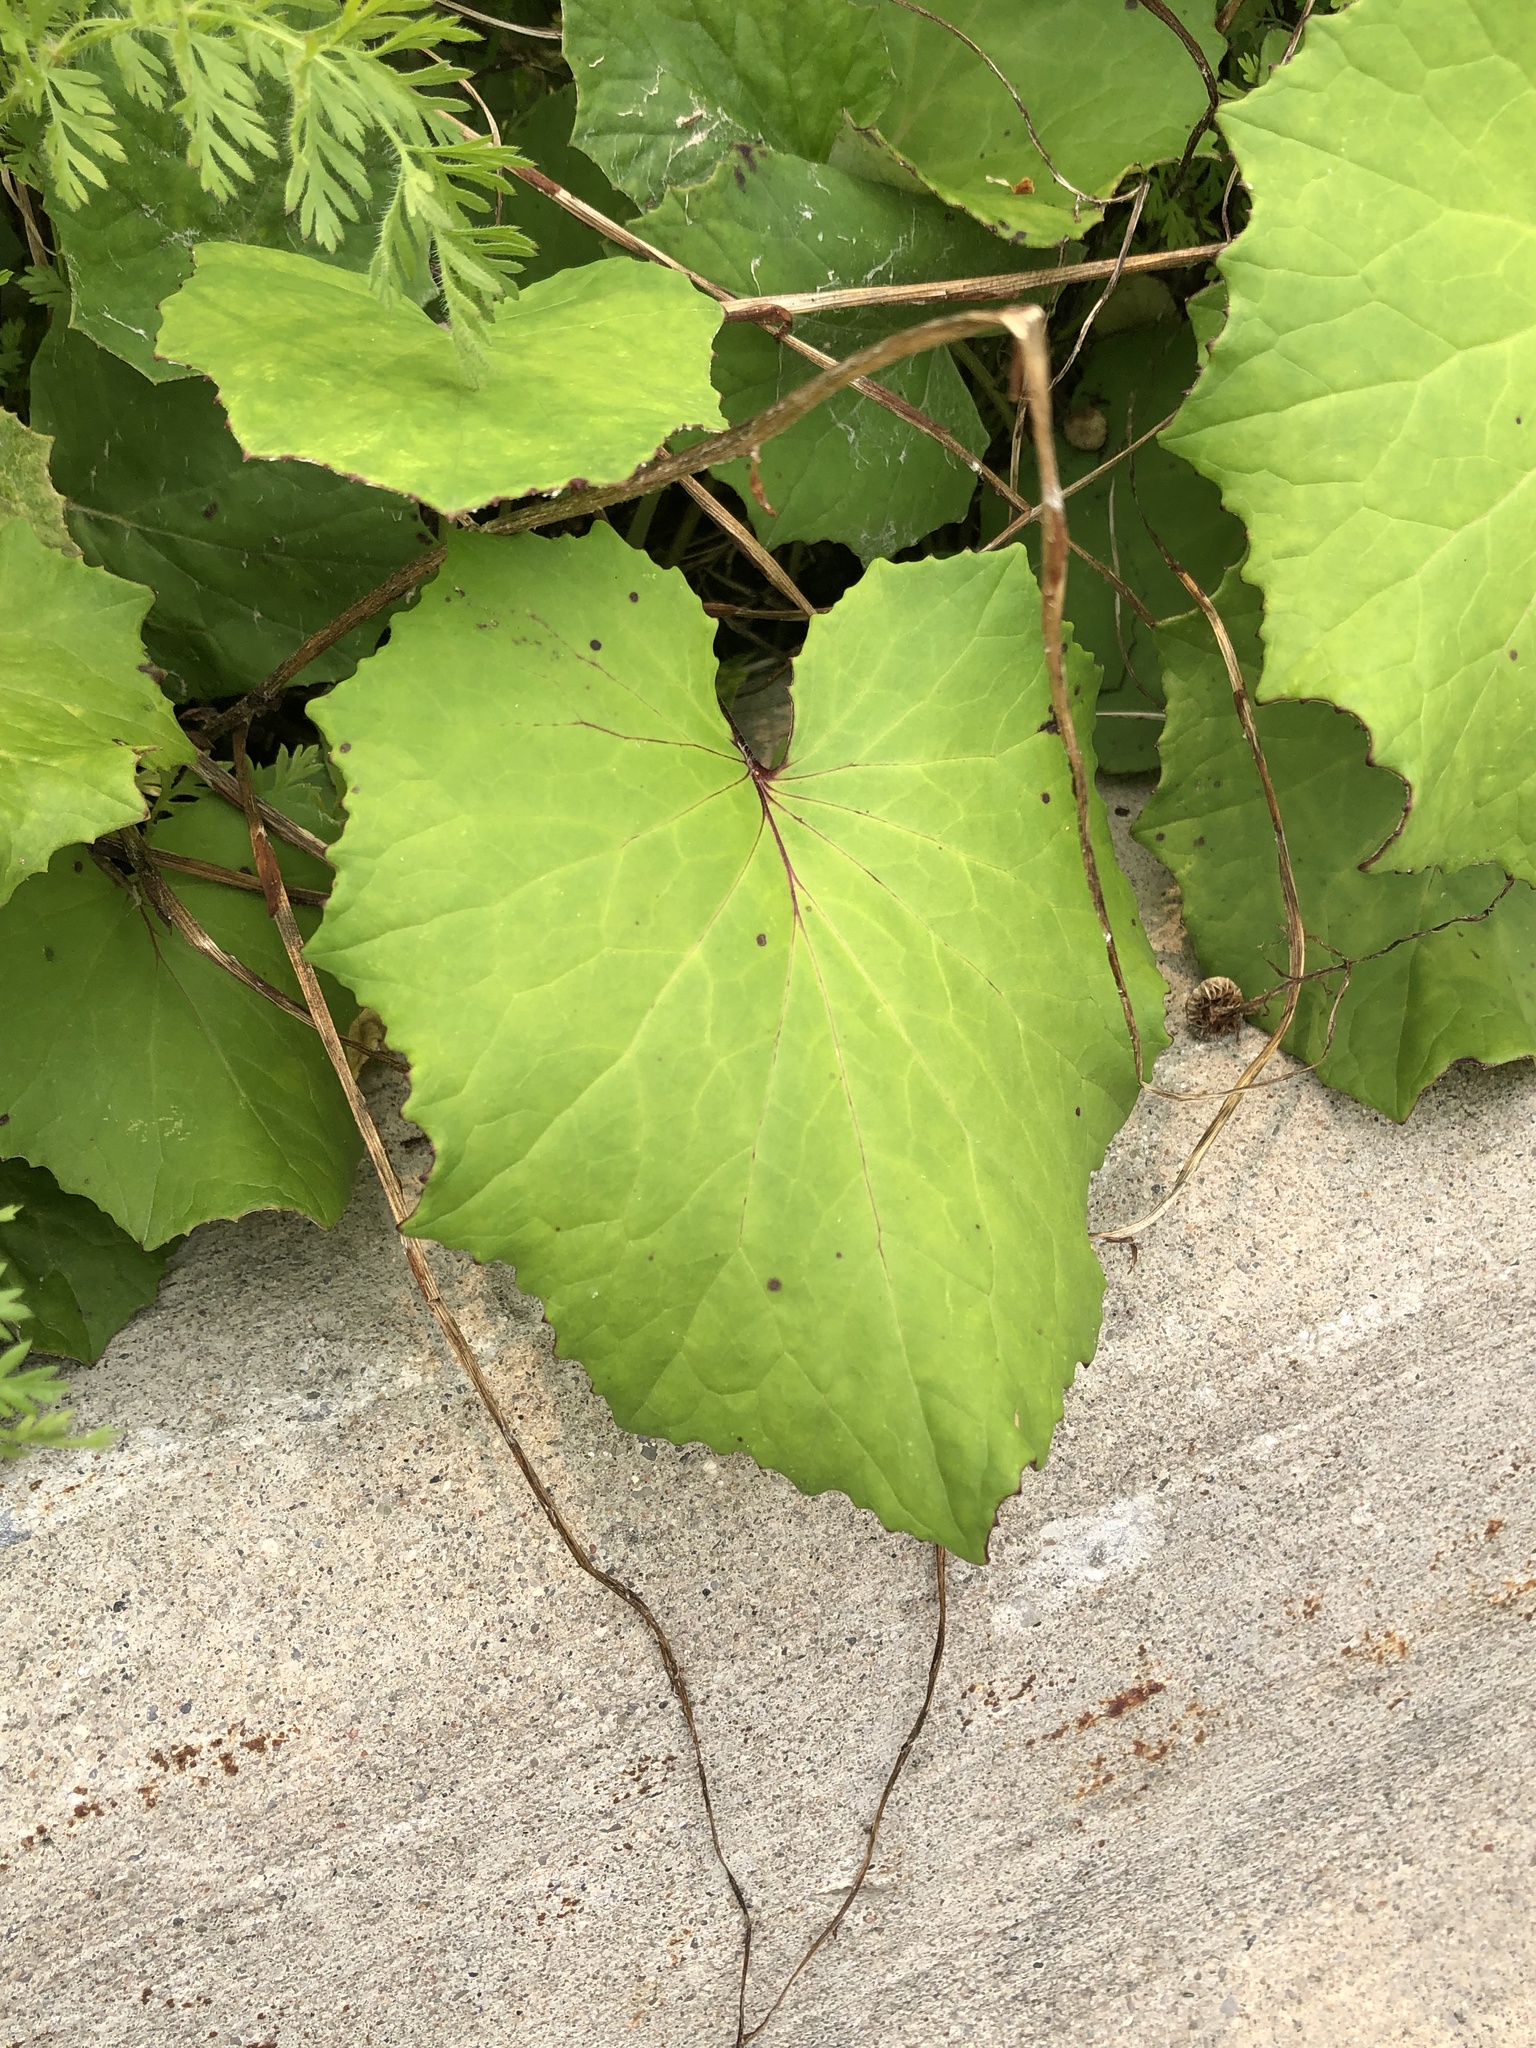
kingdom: Plantae
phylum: Tracheophyta
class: Magnoliopsida
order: Asterales
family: Asteraceae
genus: Tussilago
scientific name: Tussilago farfara
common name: Coltsfoot
